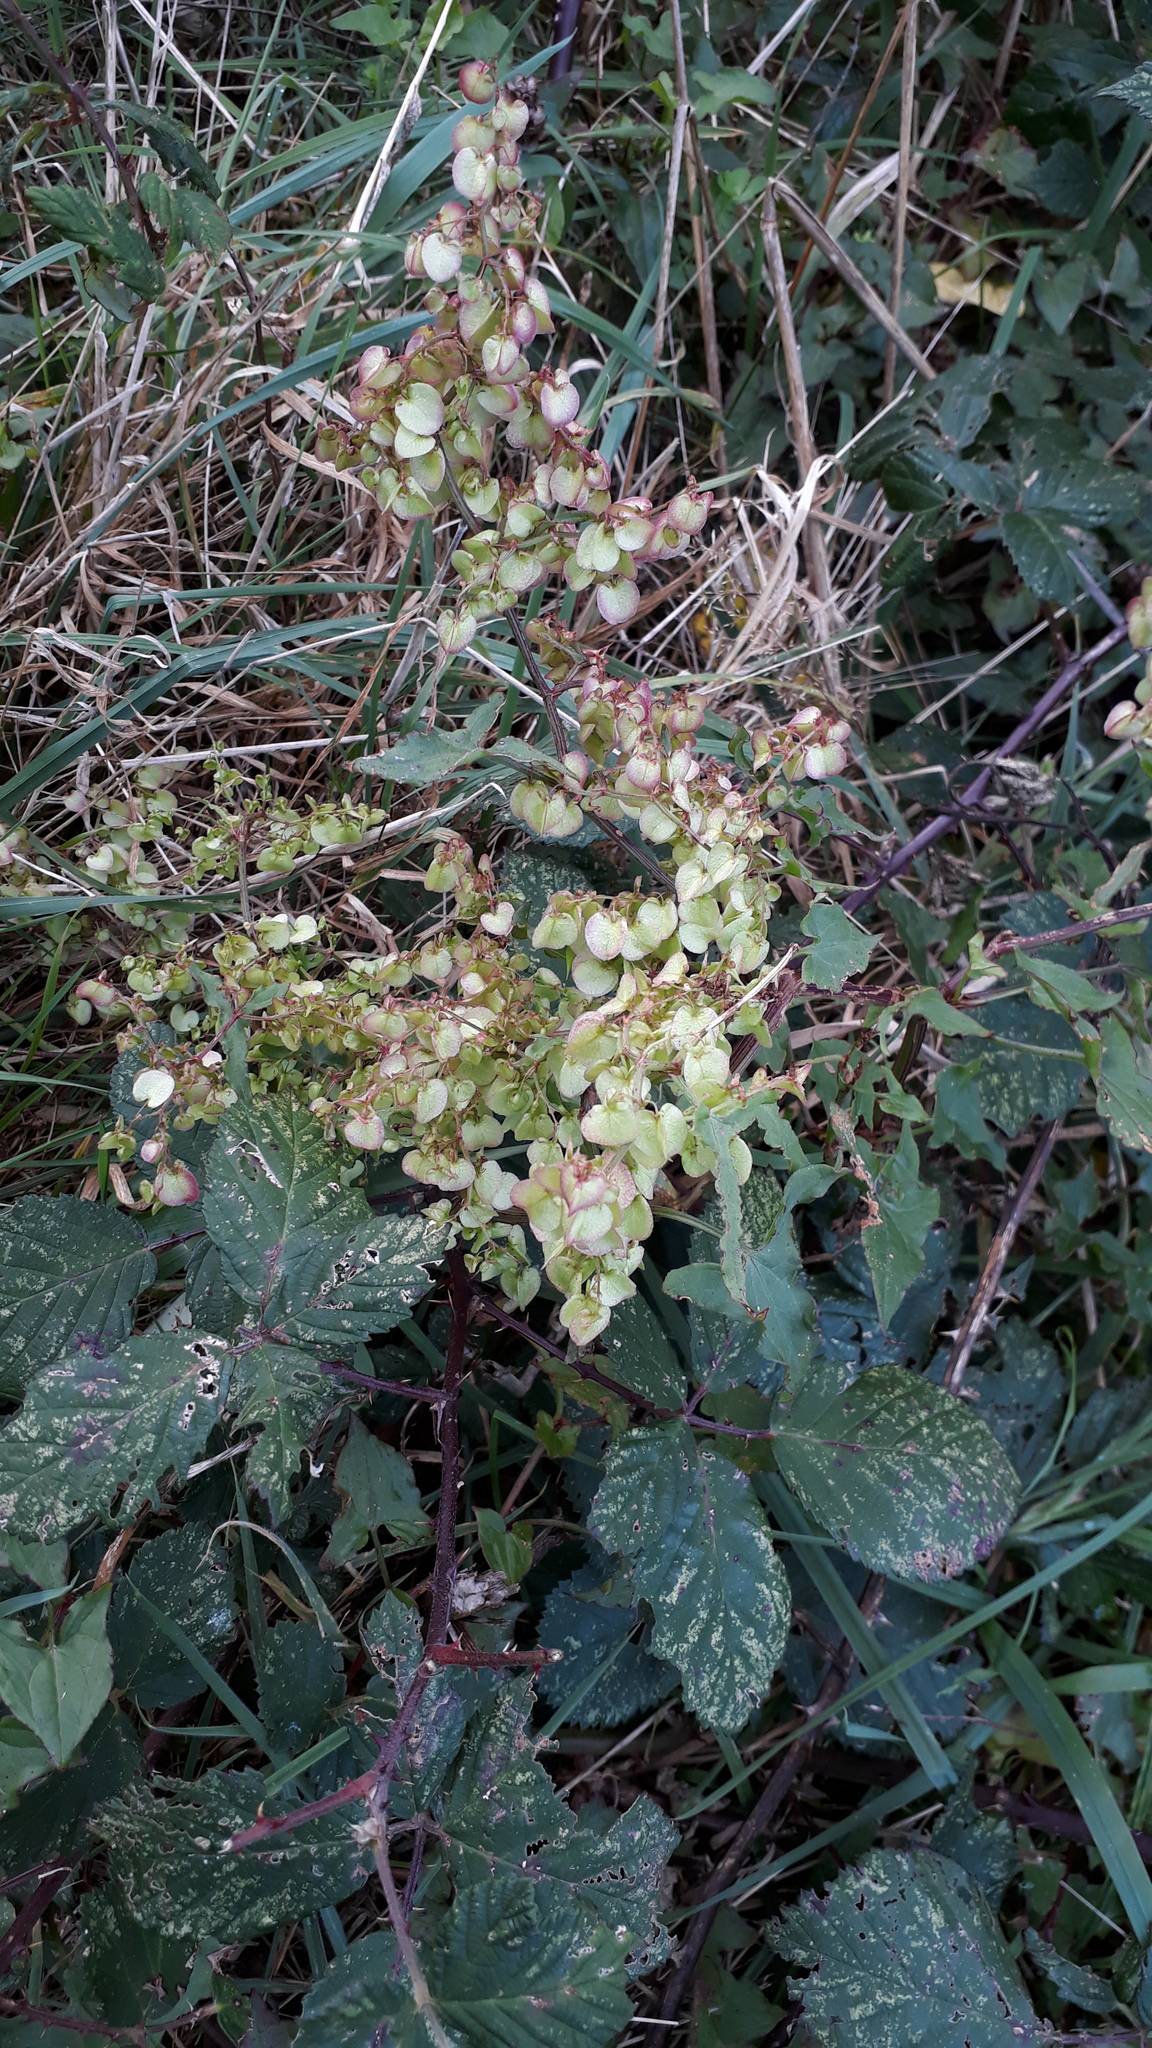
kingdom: Plantae
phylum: Tracheophyta
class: Magnoliopsida
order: Caryophyllales
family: Polygonaceae
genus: Rumex
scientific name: Rumex sagittatus
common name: Climbing dock
